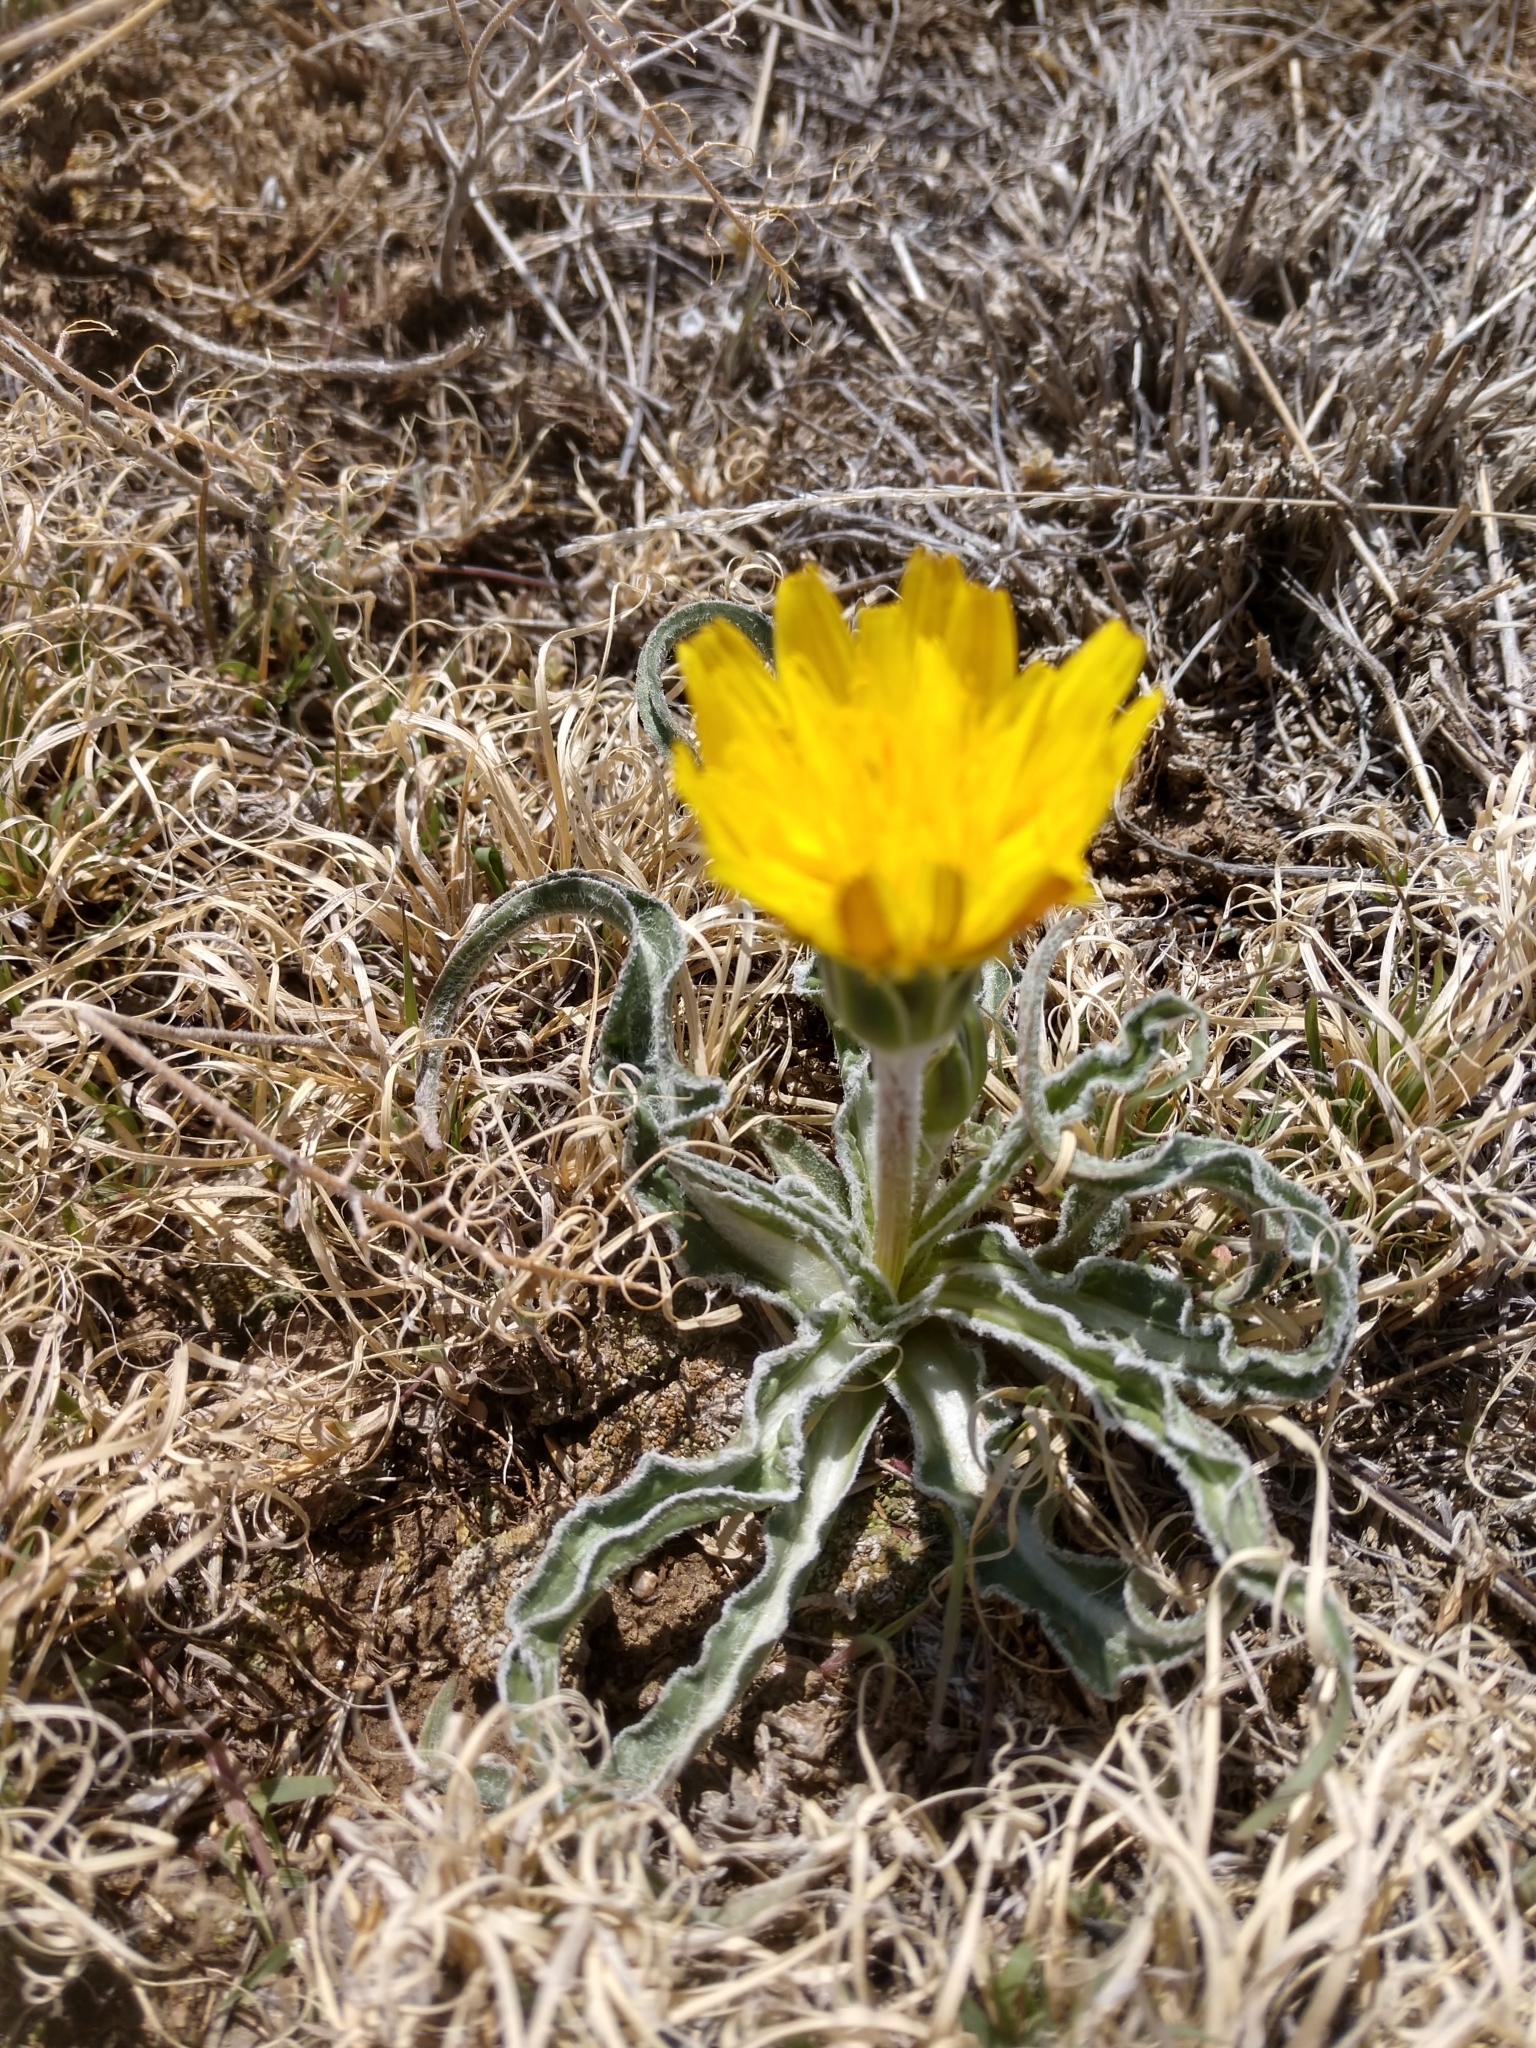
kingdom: Plantae
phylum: Tracheophyta
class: Magnoliopsida
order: Asterales
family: Asteraceae
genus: Microseris
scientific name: Microseris cuspidata
